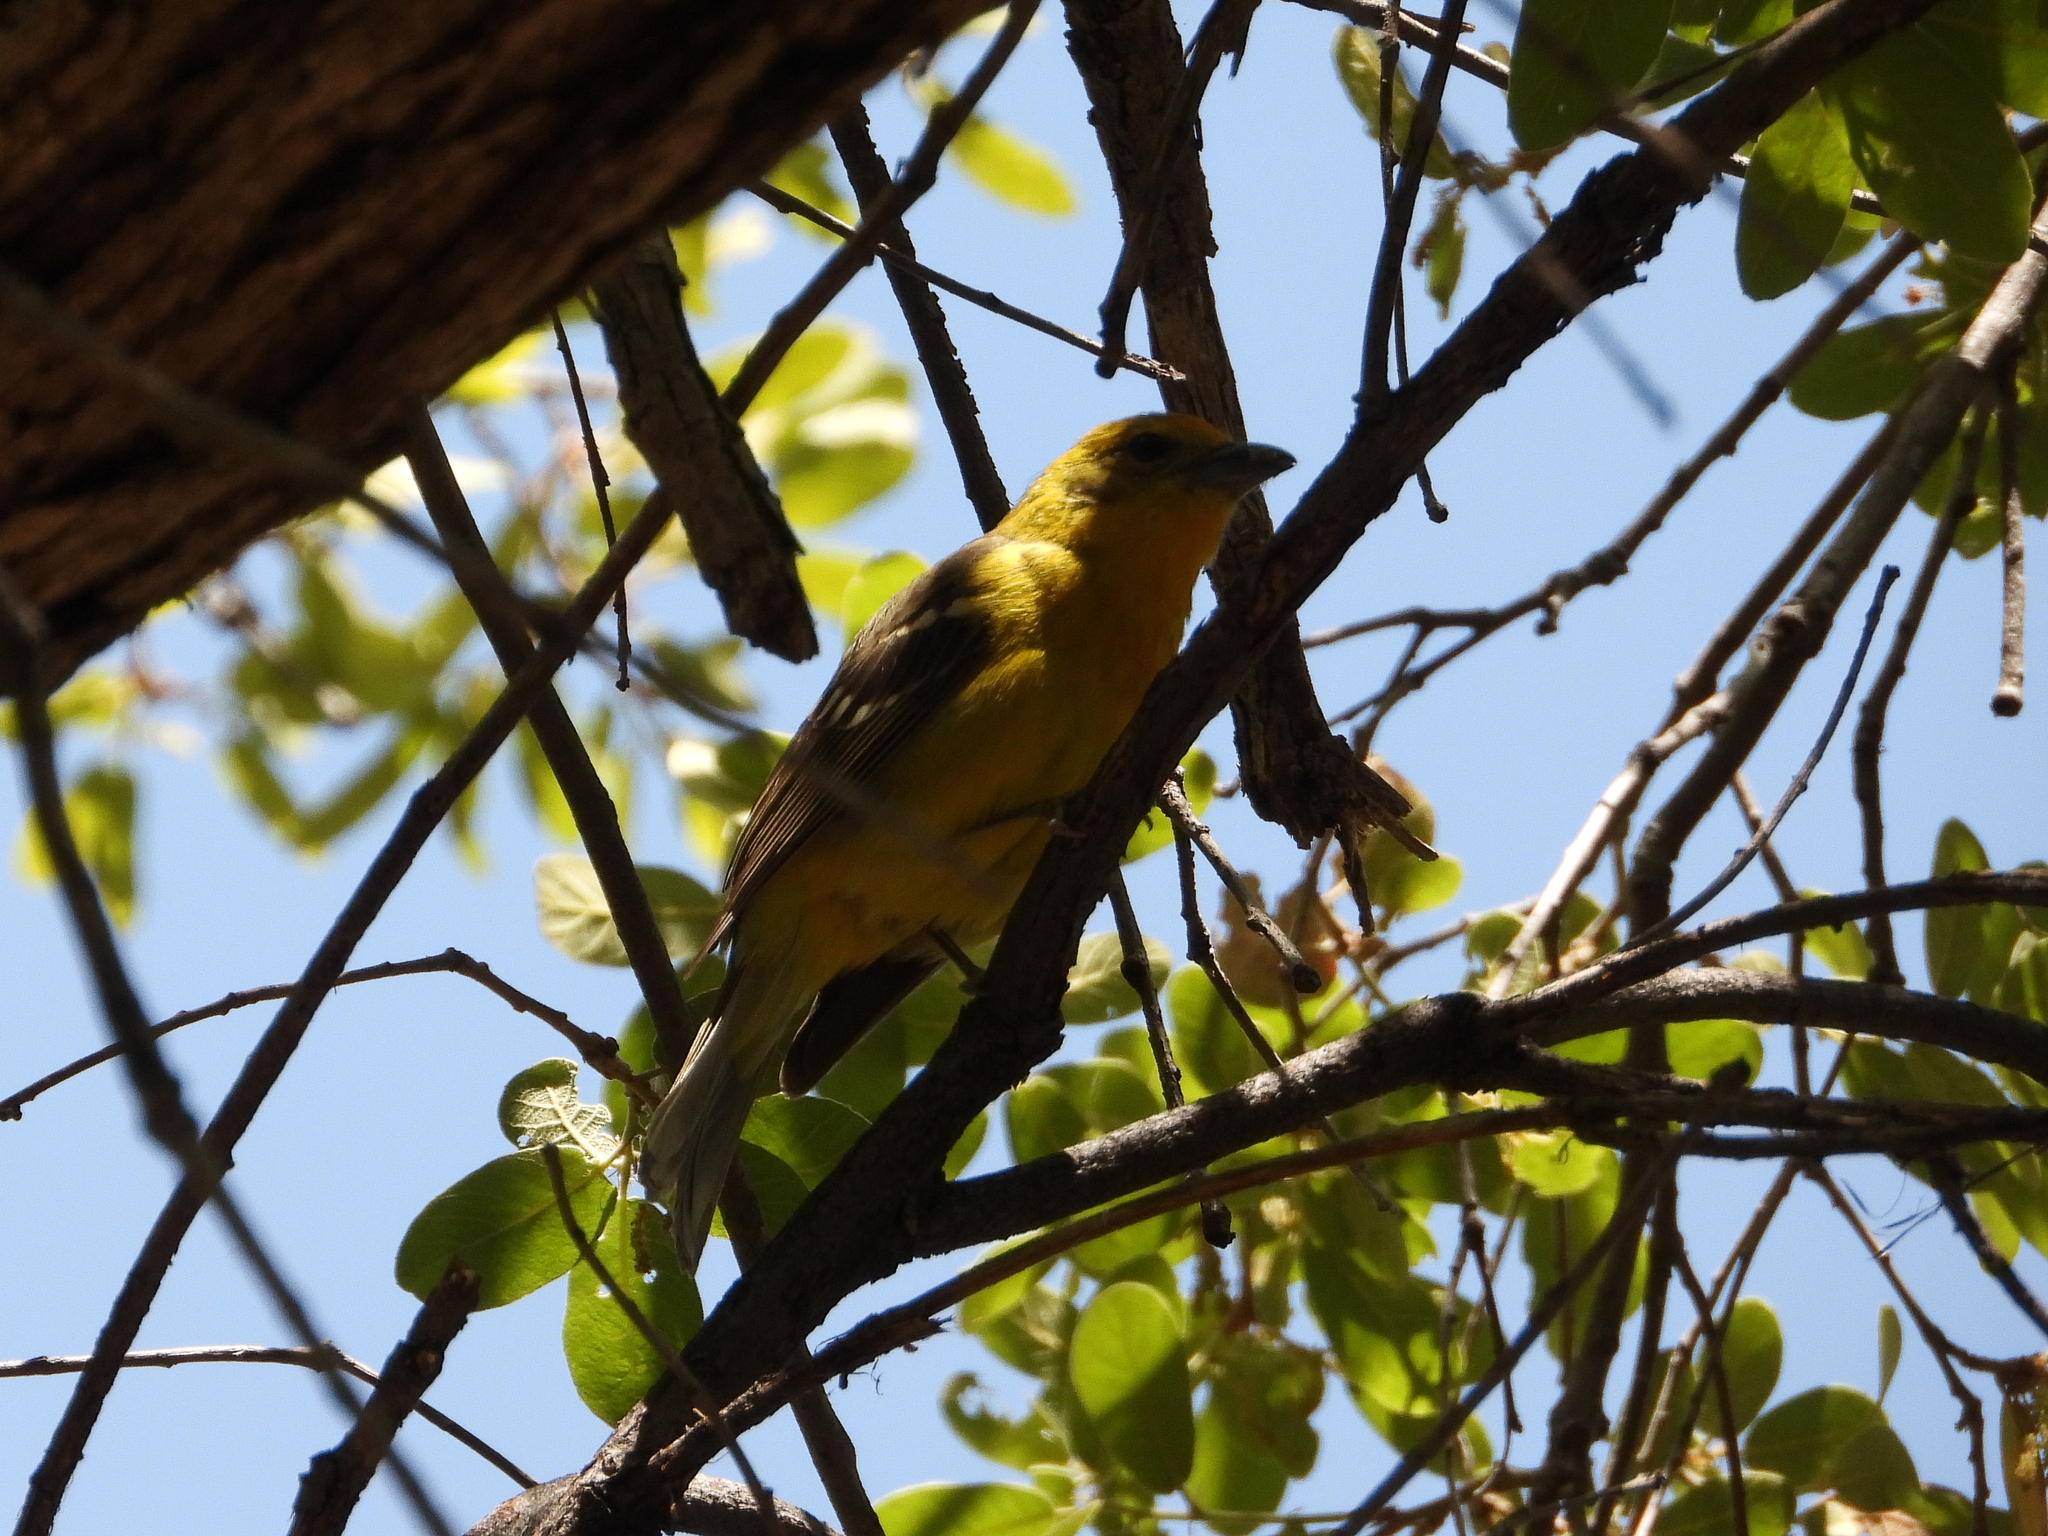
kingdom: Animalia
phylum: Chordata
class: Aves
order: Passeriformes
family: Cardinalidae
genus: Piranga
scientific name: Piranga bidentata
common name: Flame-colored tanager
